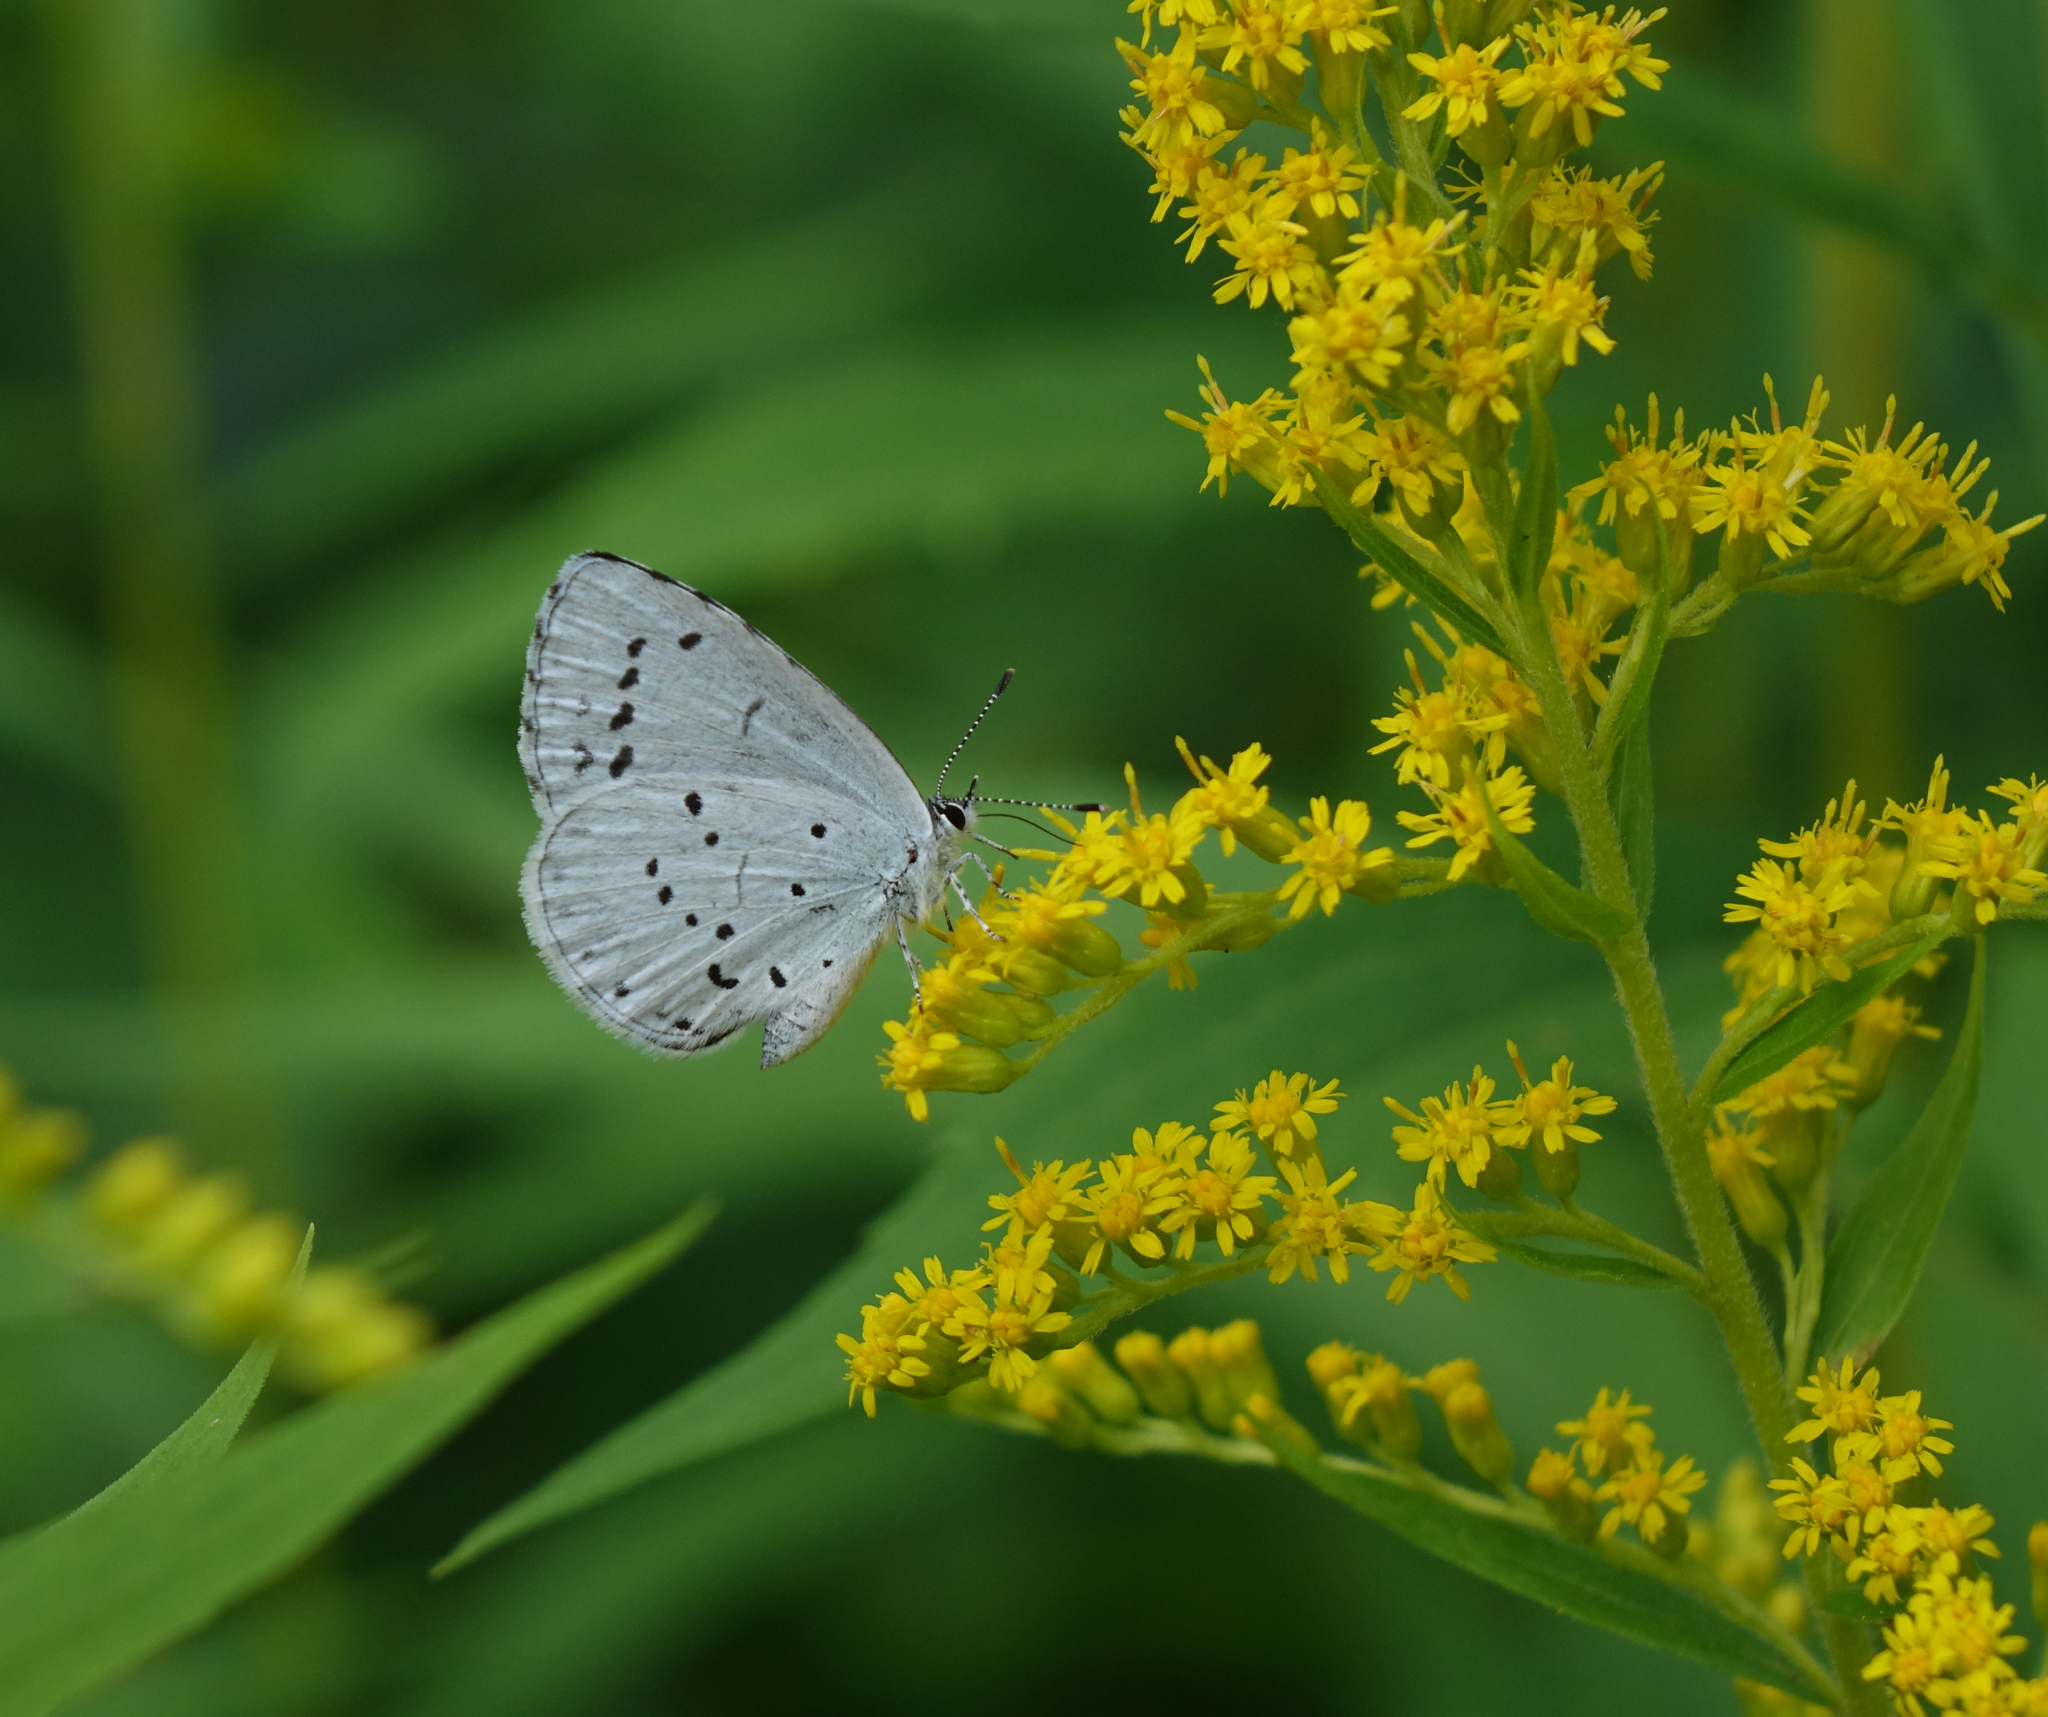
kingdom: Animalia
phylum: Arthropoda
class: Insecta
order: Lepidoptera
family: Lycaenidae
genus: Celastrina
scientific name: Celastrina argiolus
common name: Holly blue
